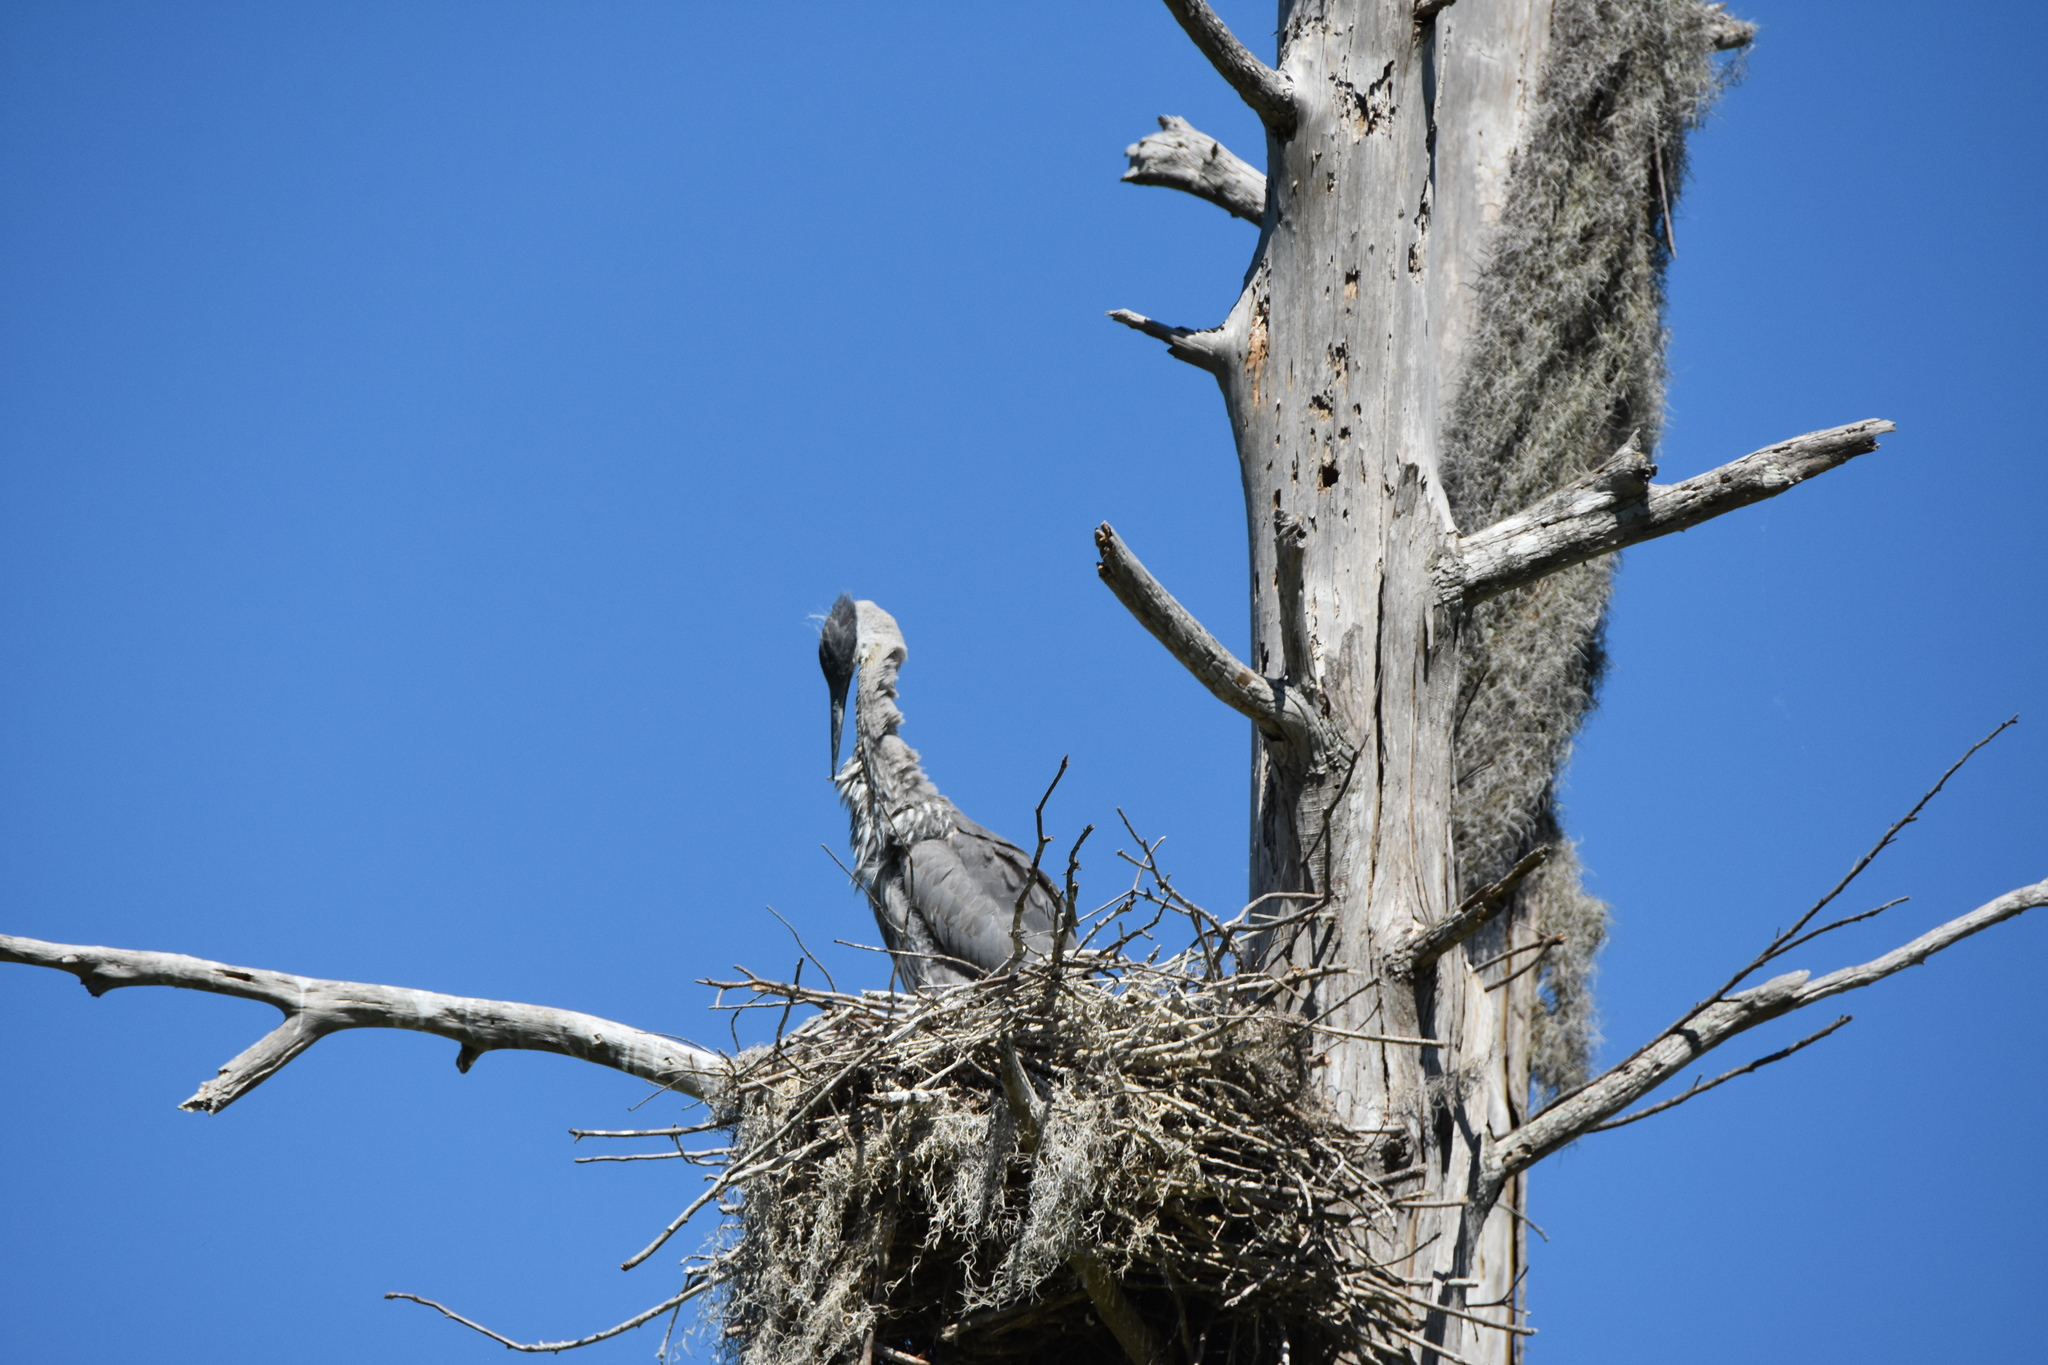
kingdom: Animalia
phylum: Chordata
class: Aves
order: Pelecaniformes
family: Ardeidae
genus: Ardea
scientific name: Ardea herodias
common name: Great blue heron
